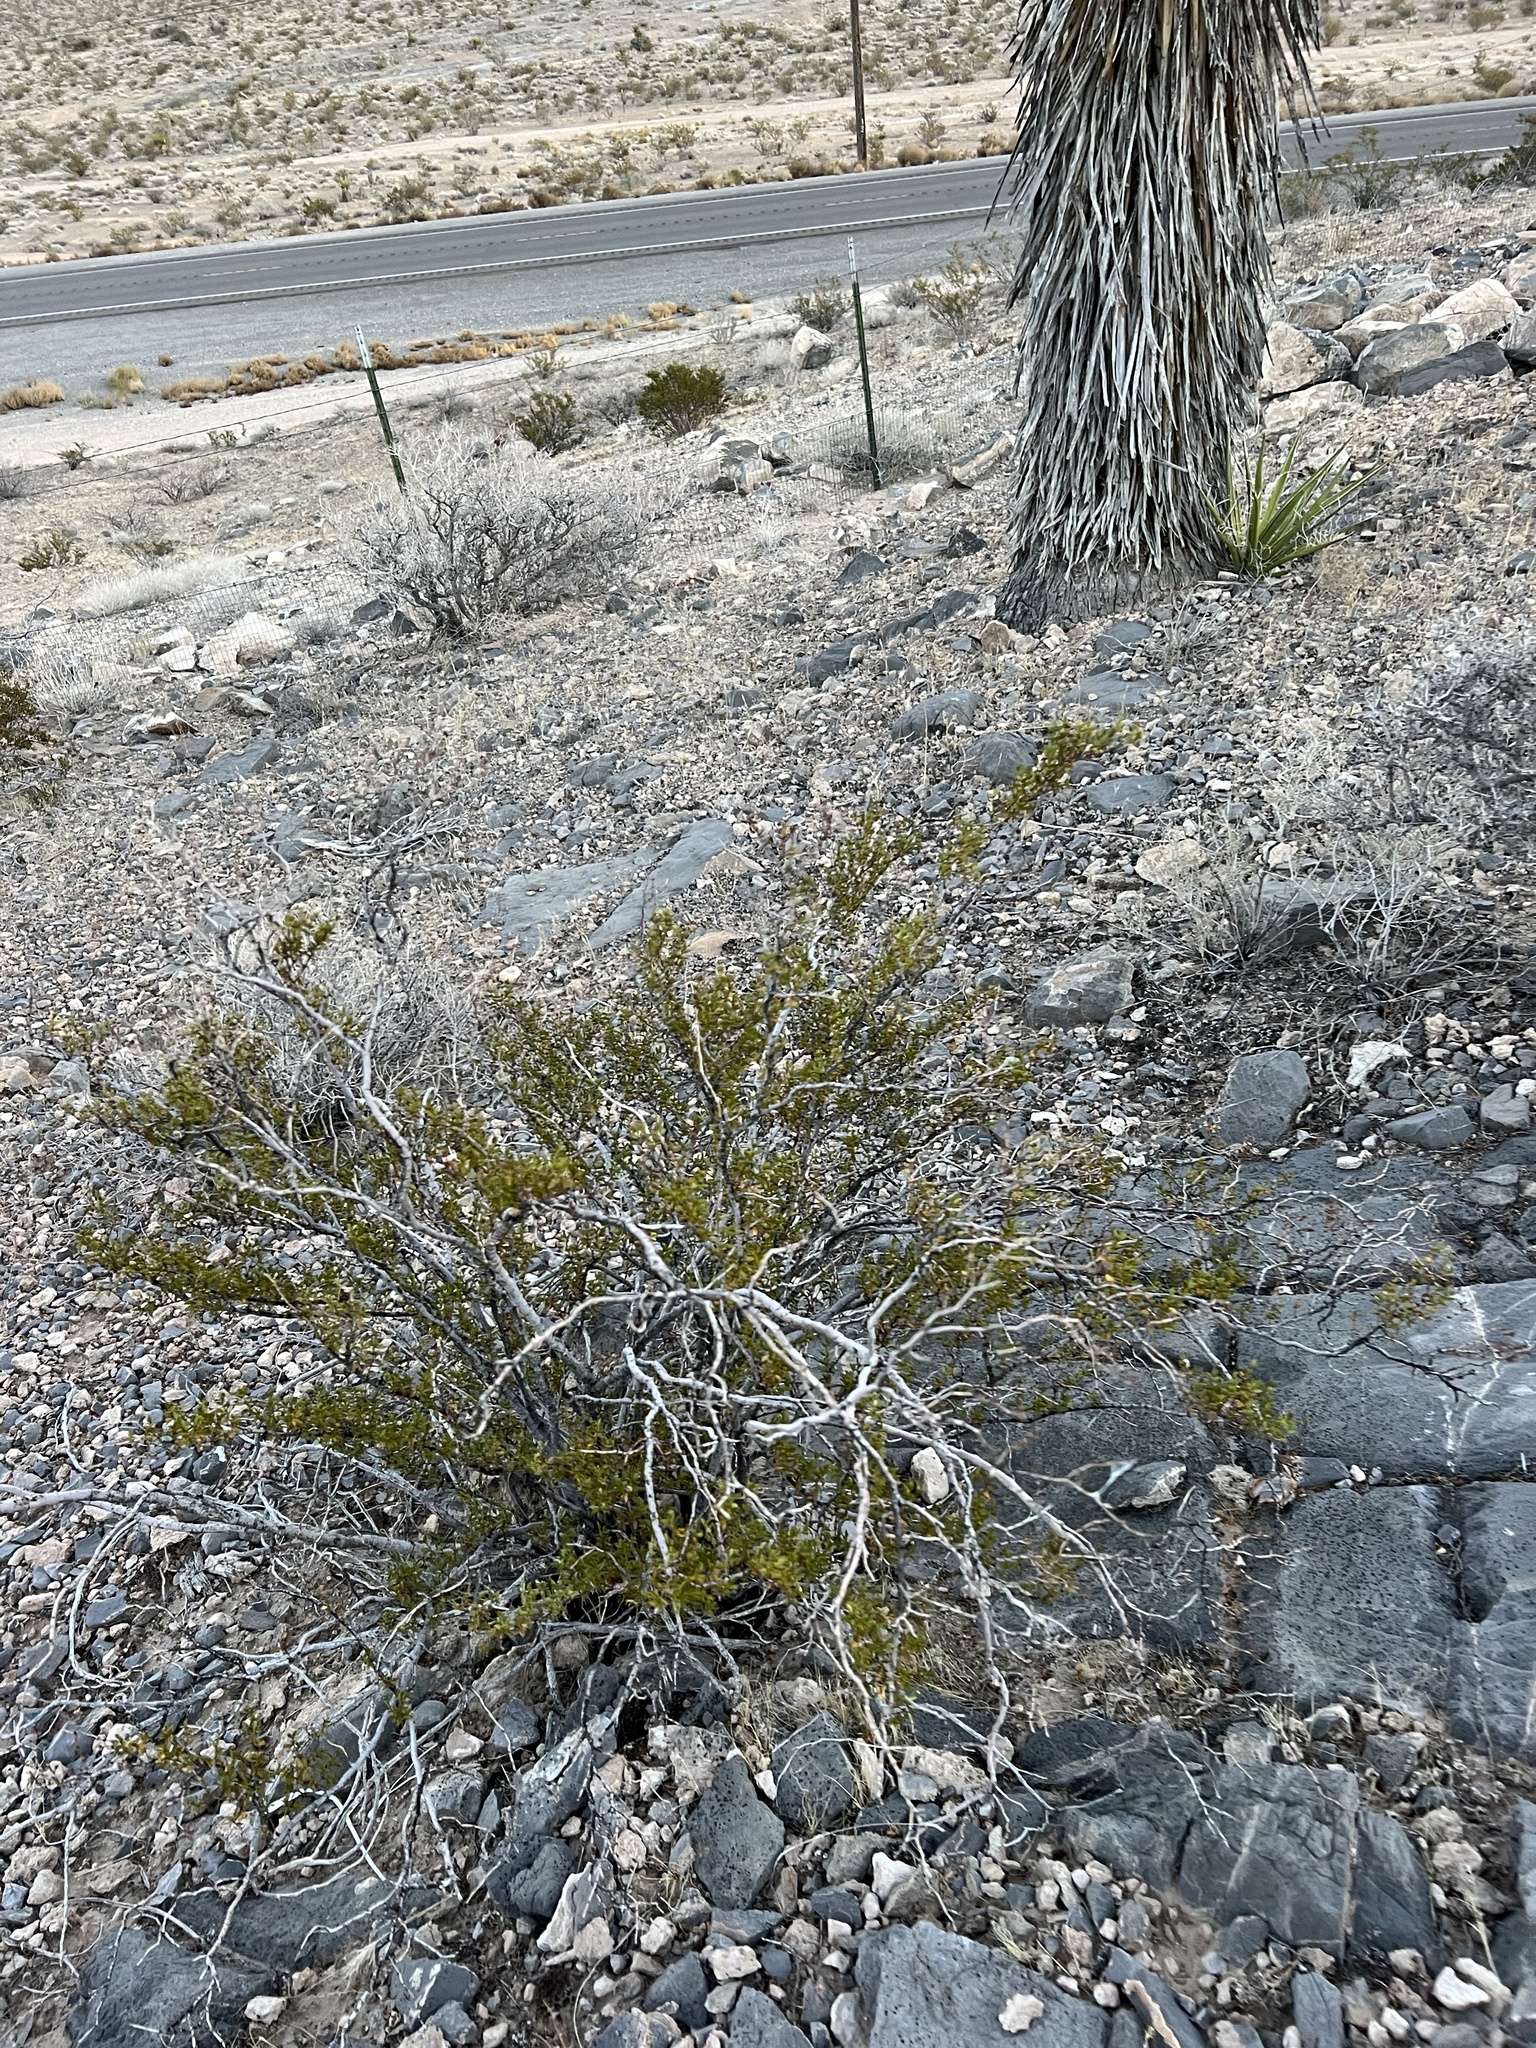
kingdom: Plantae
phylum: Tracheophyta
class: Magnoliopsida
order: Zygophyllales
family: Zygophyllaceae
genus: Larrea
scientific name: Larrea tridentata
